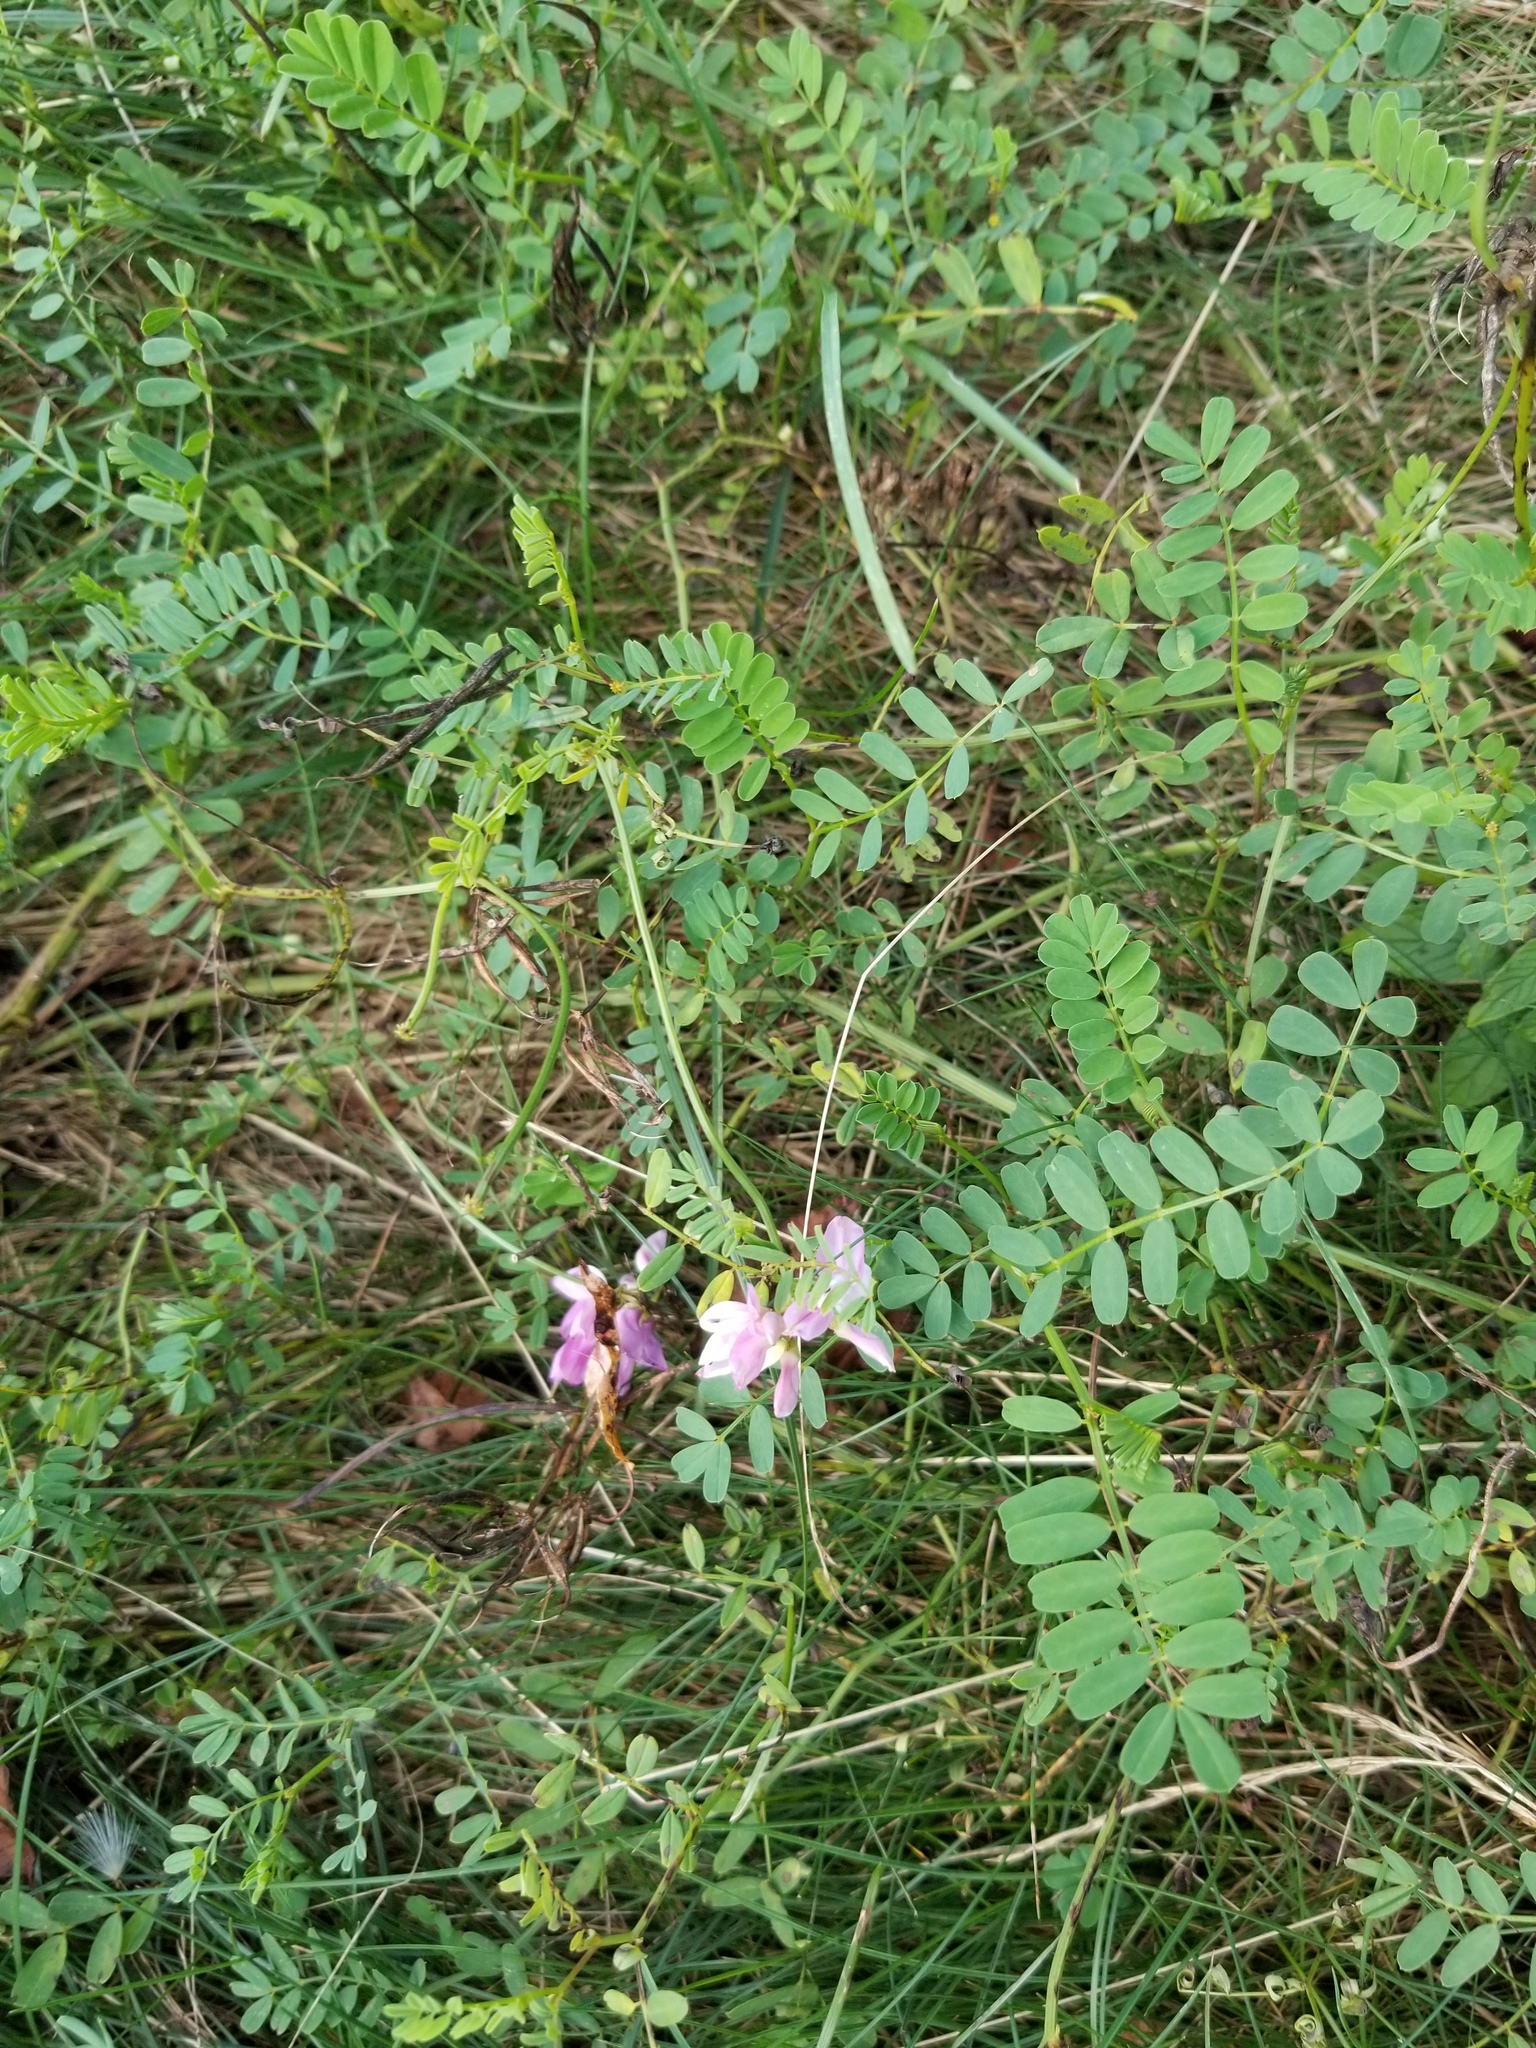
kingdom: Plantae
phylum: Tracheophyta
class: Magnoliopsida
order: Fabales
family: Fabaceae
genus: Coronilla
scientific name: Coronilla varia
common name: Crownvetch
